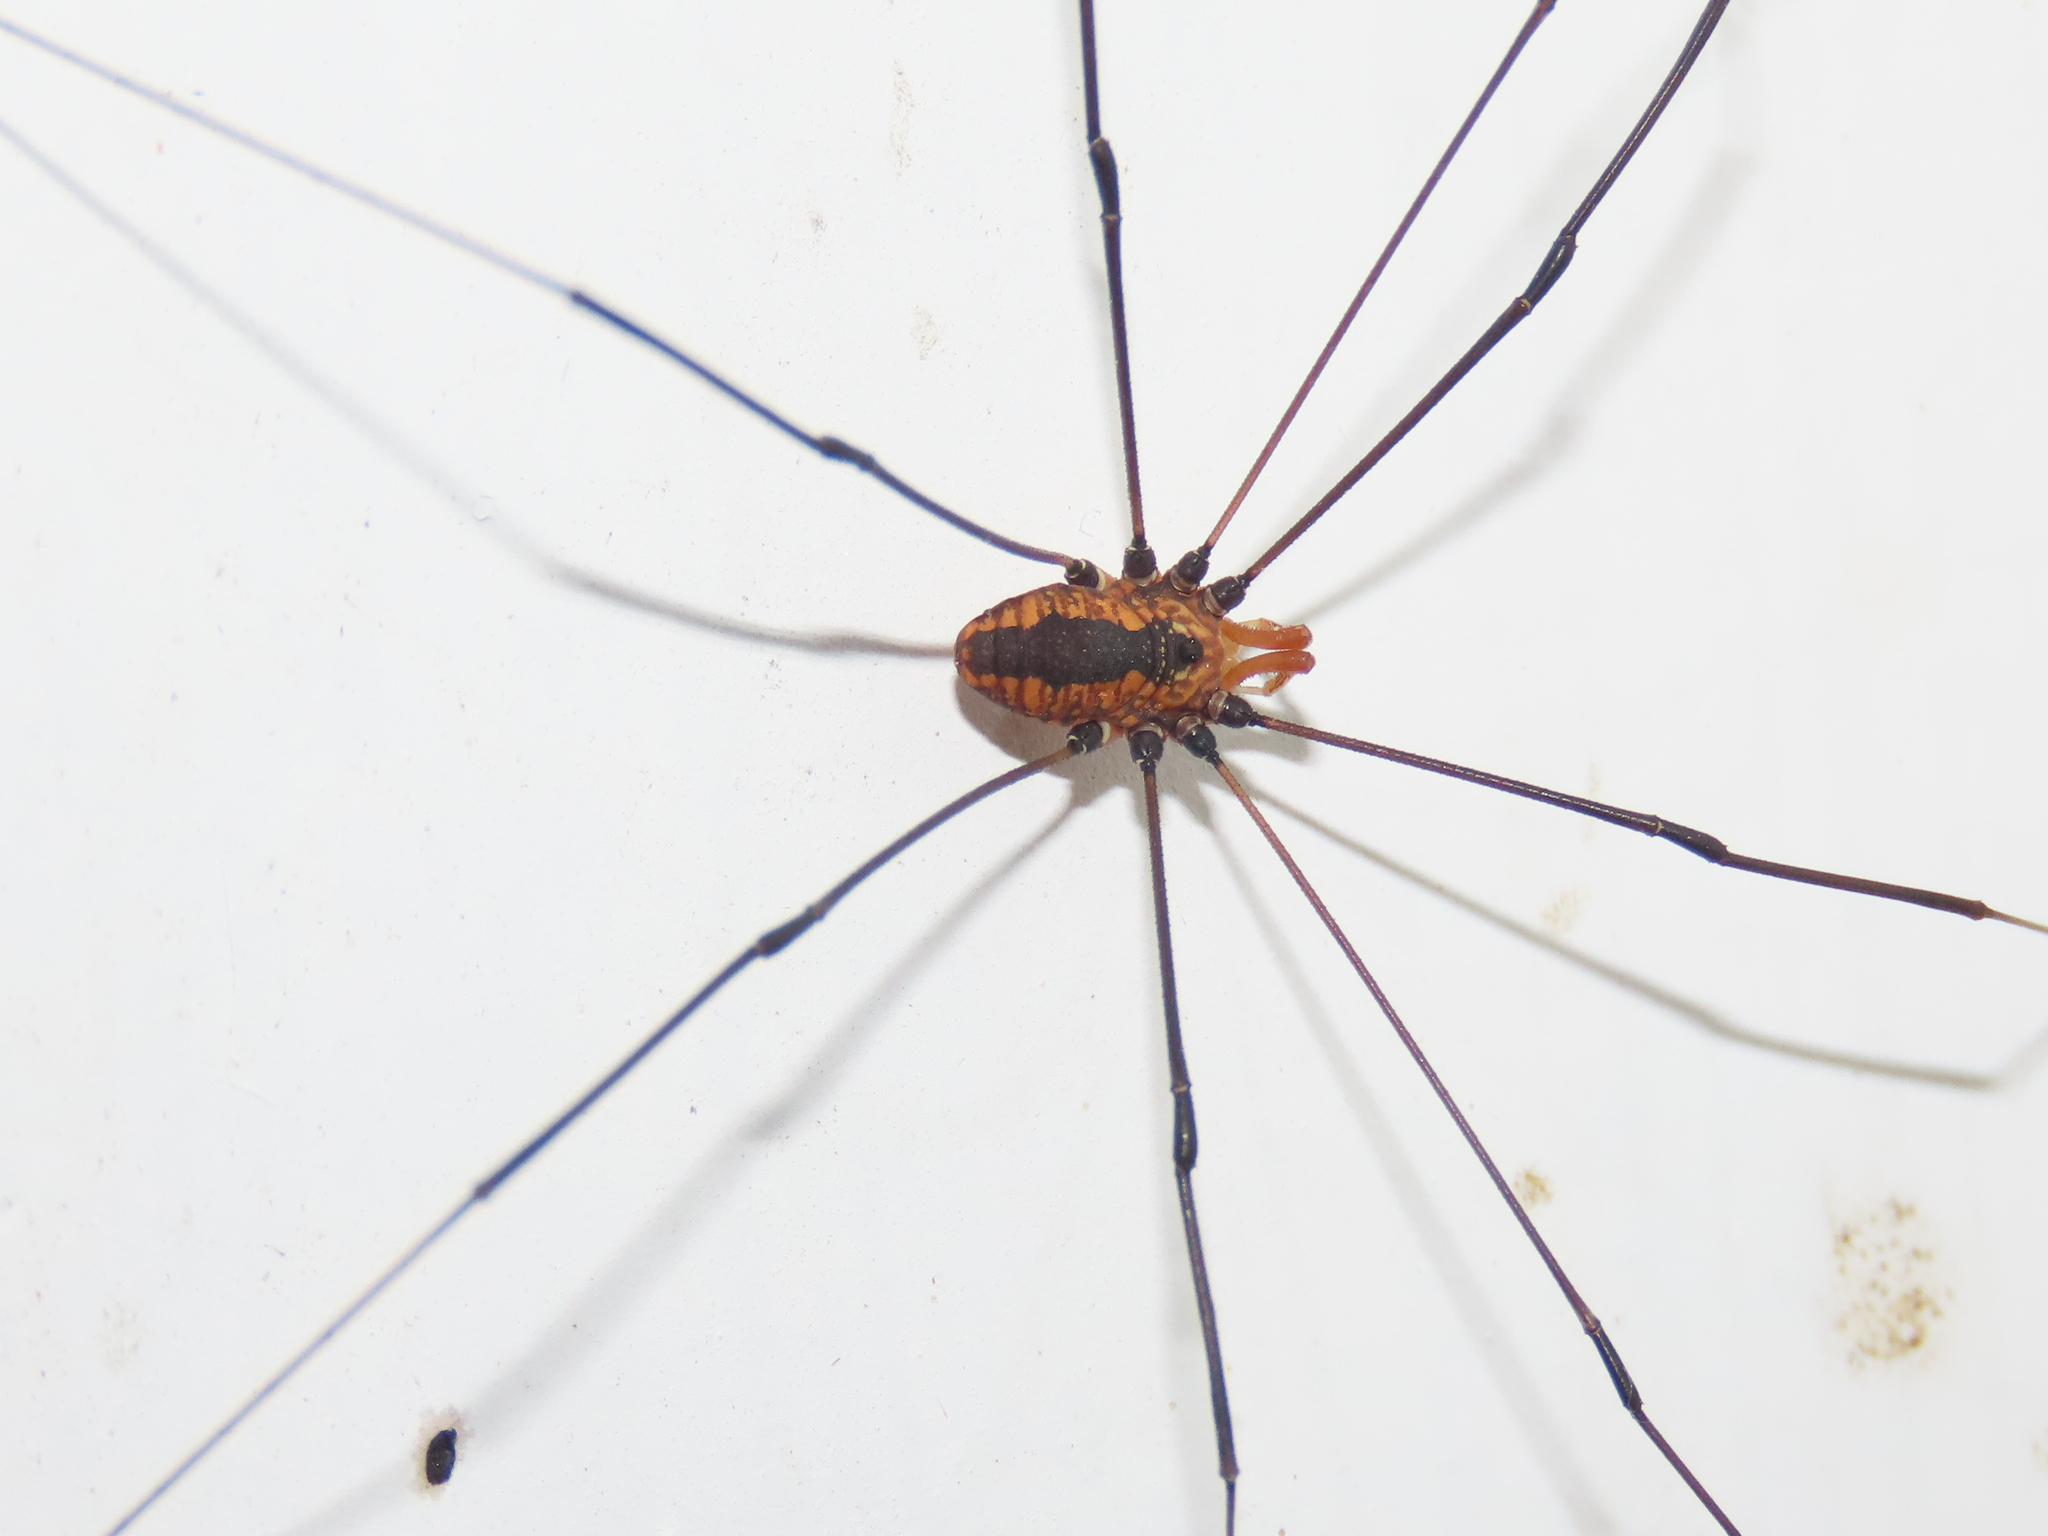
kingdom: Animalia
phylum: Arthropoda
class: Arachnida
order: Opiliones
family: Sclerosomatidae
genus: Leiobunum
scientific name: Leiobunum vittatum
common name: Eastern harvestman
